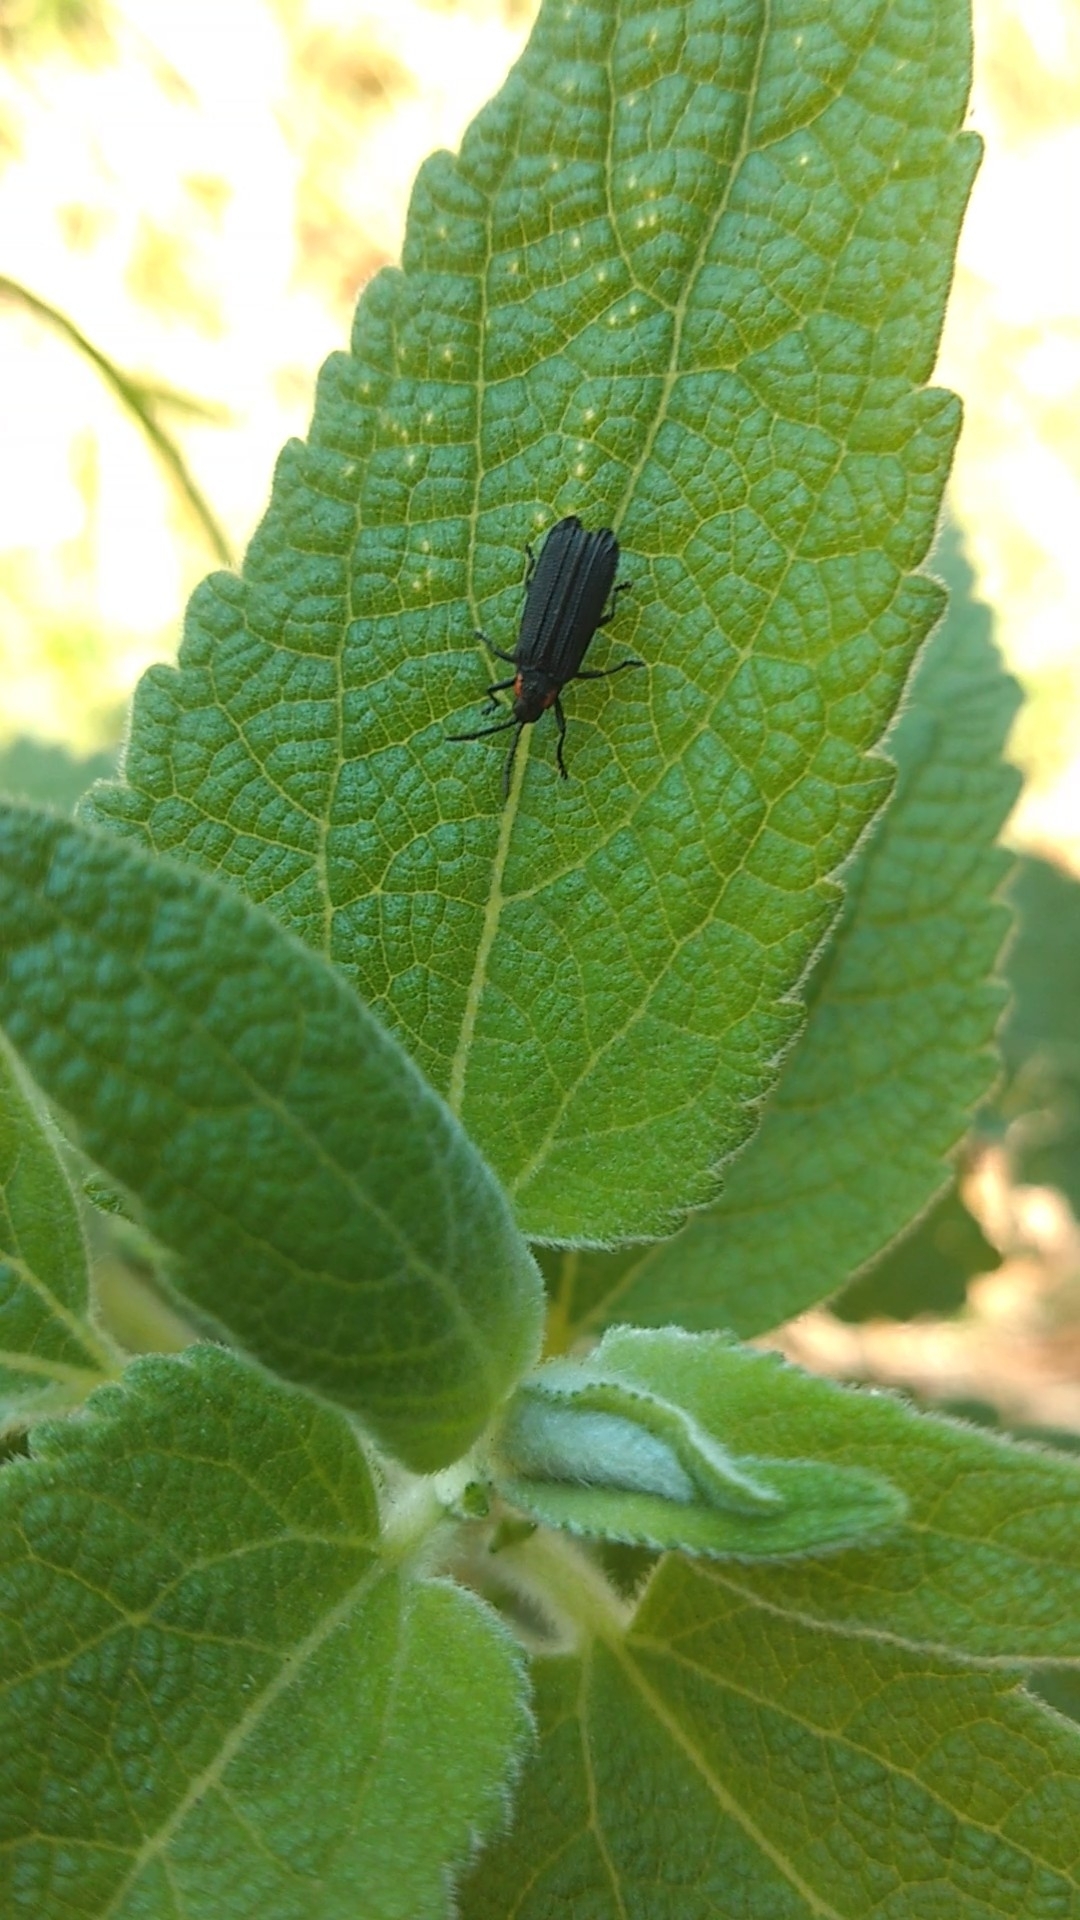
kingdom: Animalia
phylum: Arthropoda
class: Insecta
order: Coleoptera
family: Chrysomelidae
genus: Pentispa
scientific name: Pentispa
